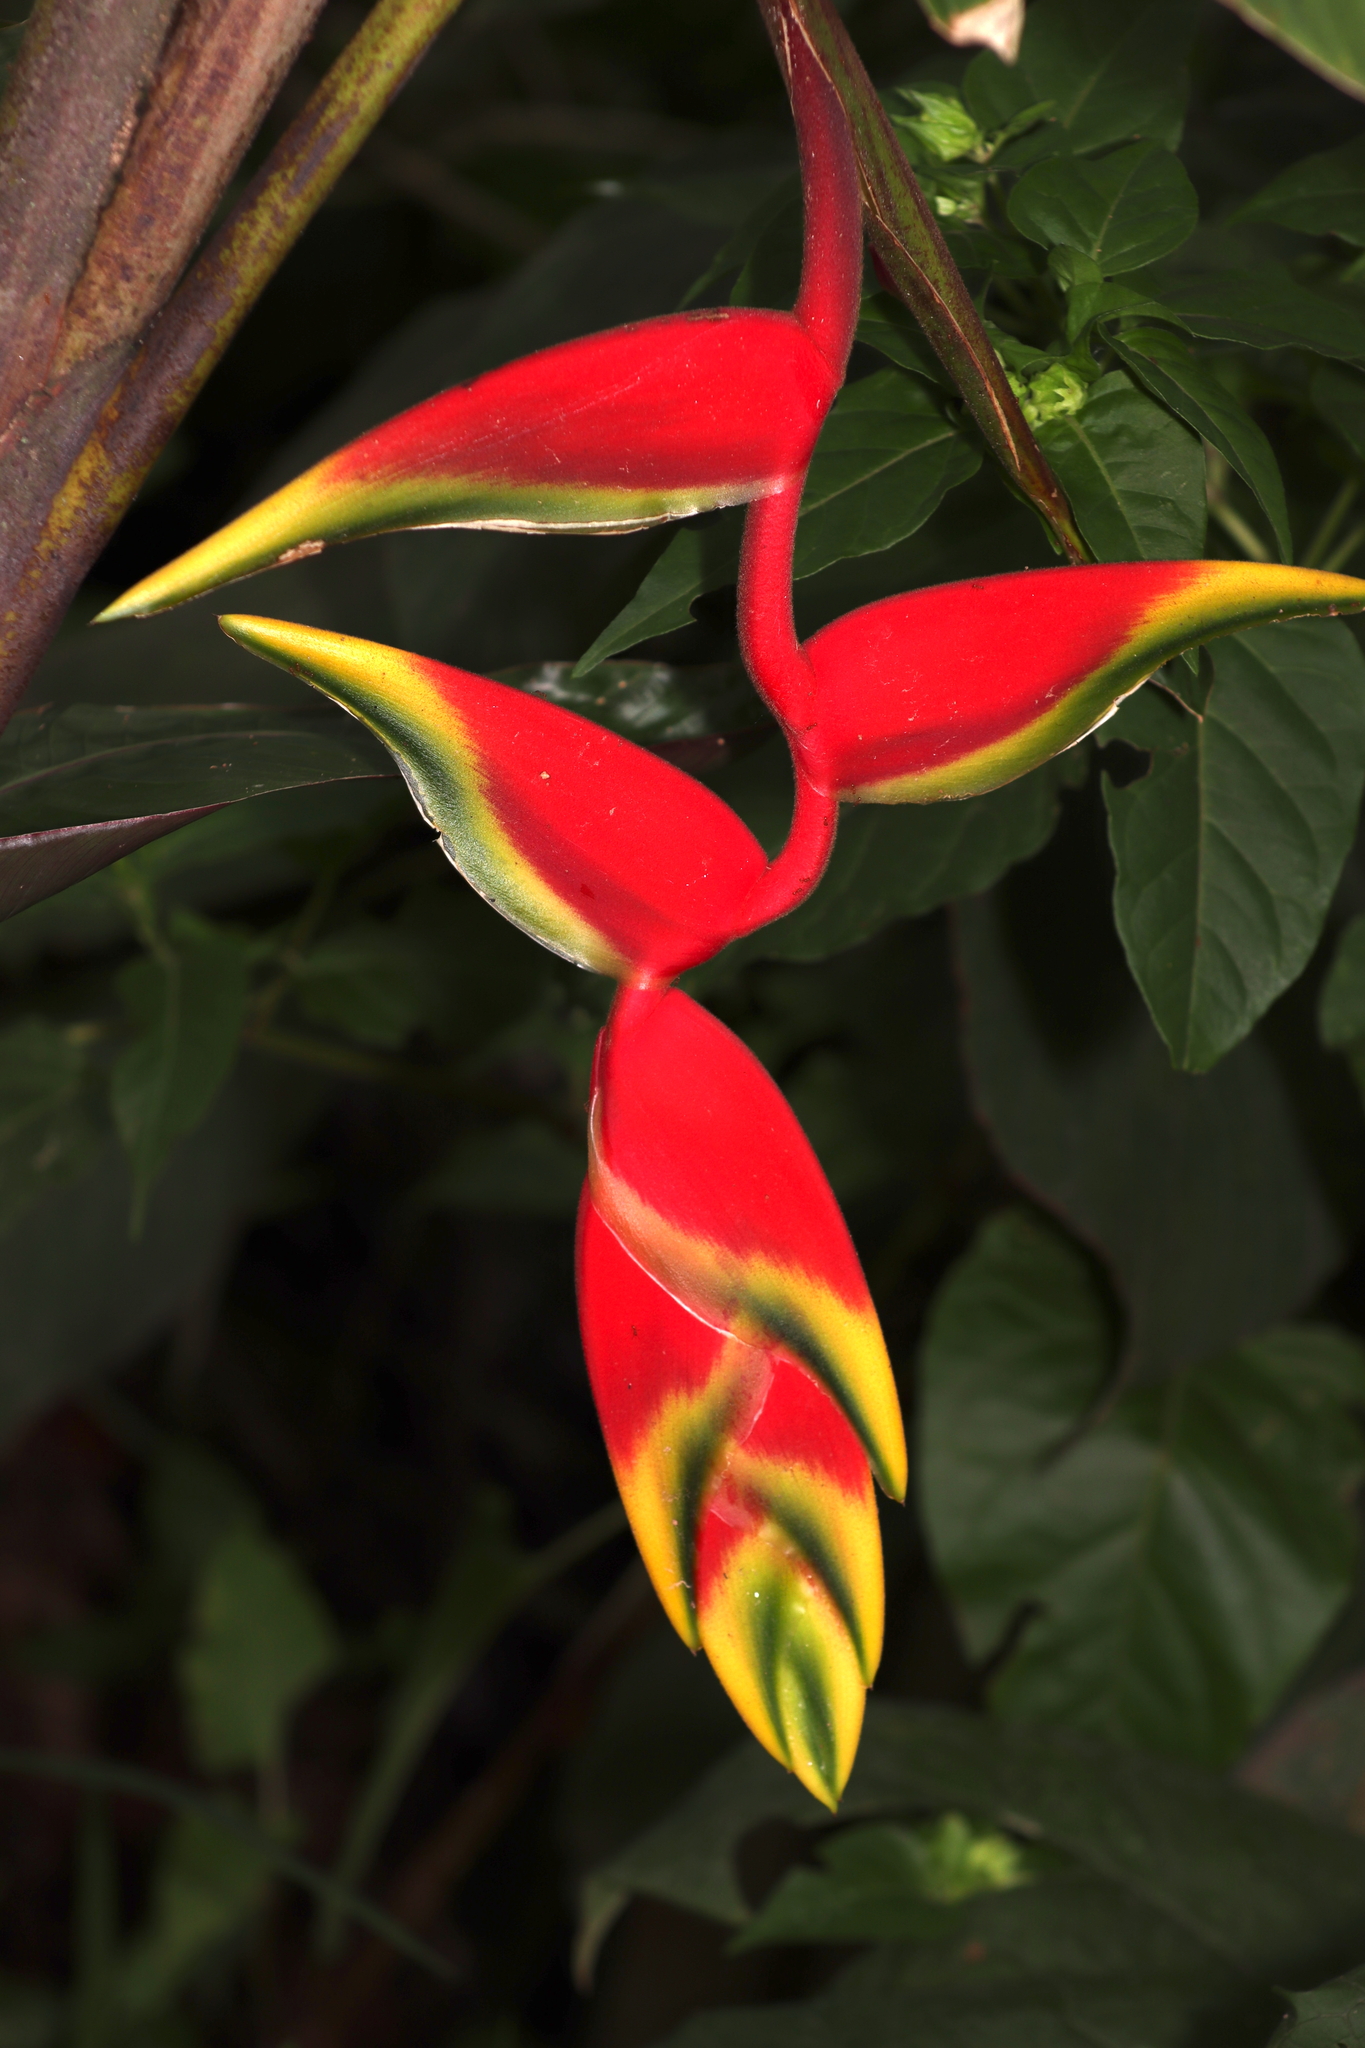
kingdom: Plantae
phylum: Tracheophyta
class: Liliopsida
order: Zingiberales
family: Heliconiaceae
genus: Heliconia
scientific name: Heliconia rostrata
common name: False bird of paradise
